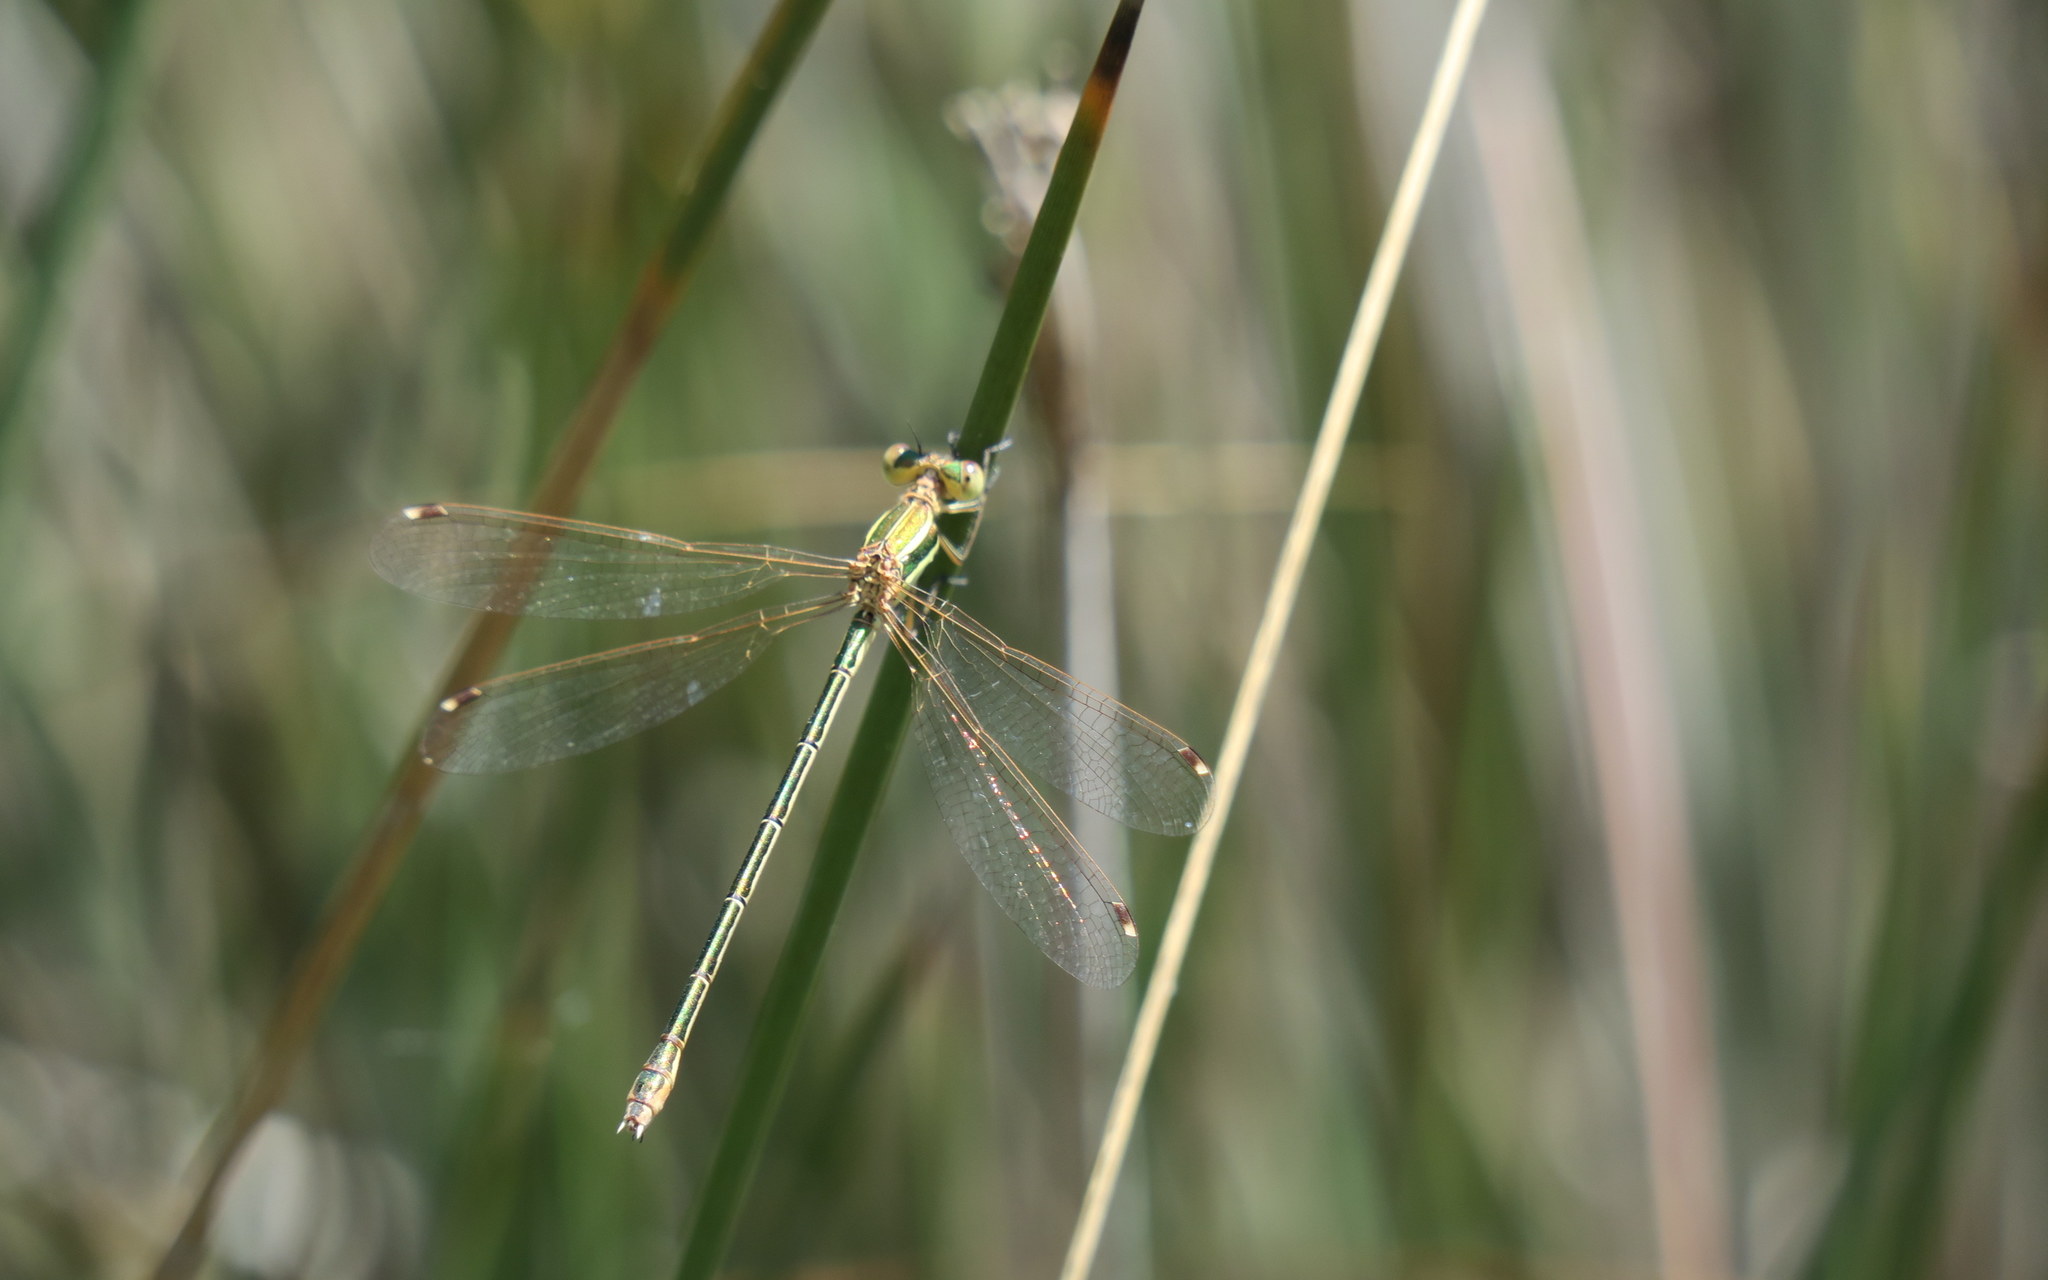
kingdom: Animalia
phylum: Arthropoda
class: Insecta
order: Odonata
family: Lestidae
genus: Lestes
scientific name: Lestes barbarus
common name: Migrant spreadwing
